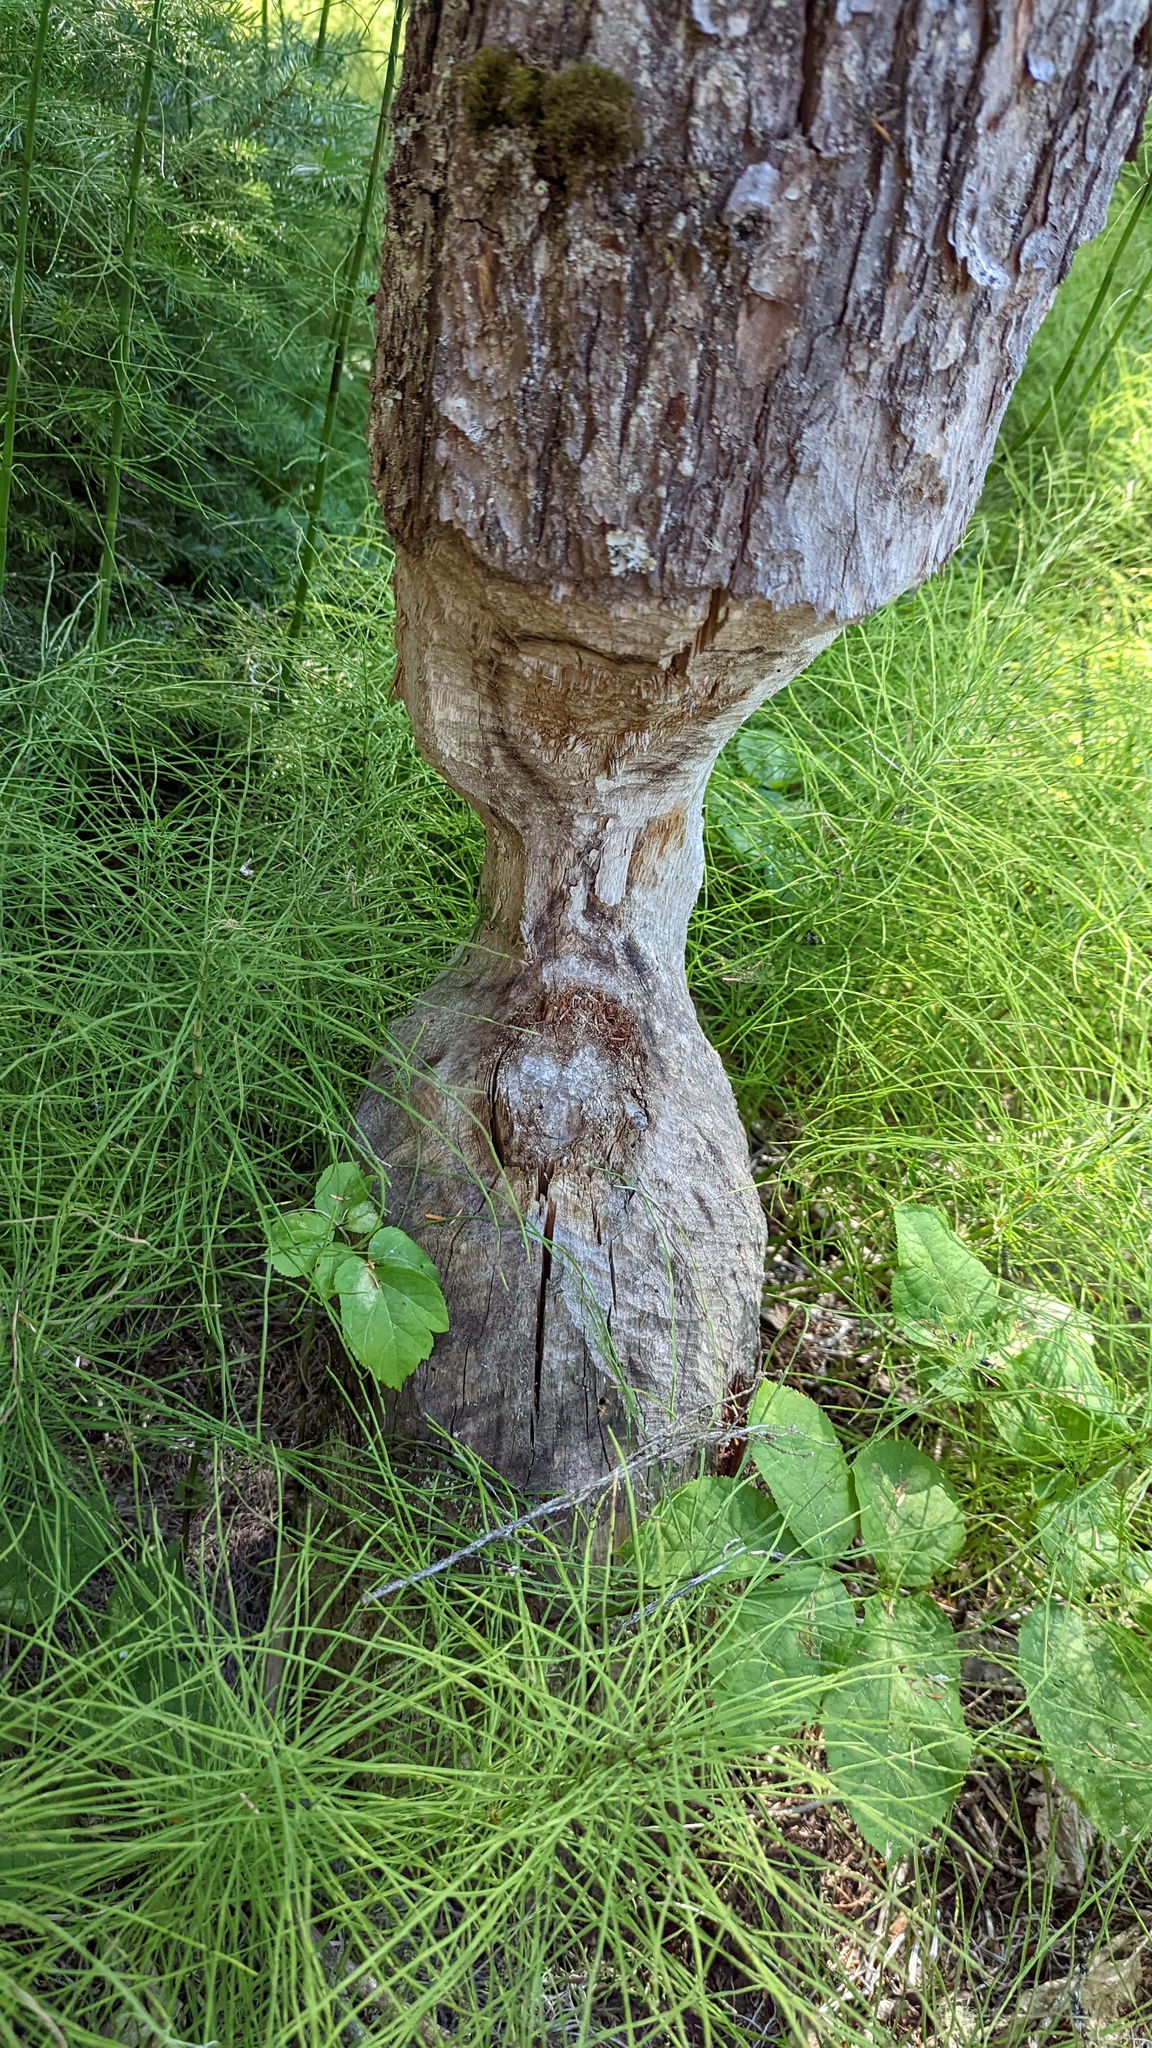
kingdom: Animalia
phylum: Chordata
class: Mammalia
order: Rodentia
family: Castoridae
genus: Castor
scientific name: Castor canadensis
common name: American beaver
